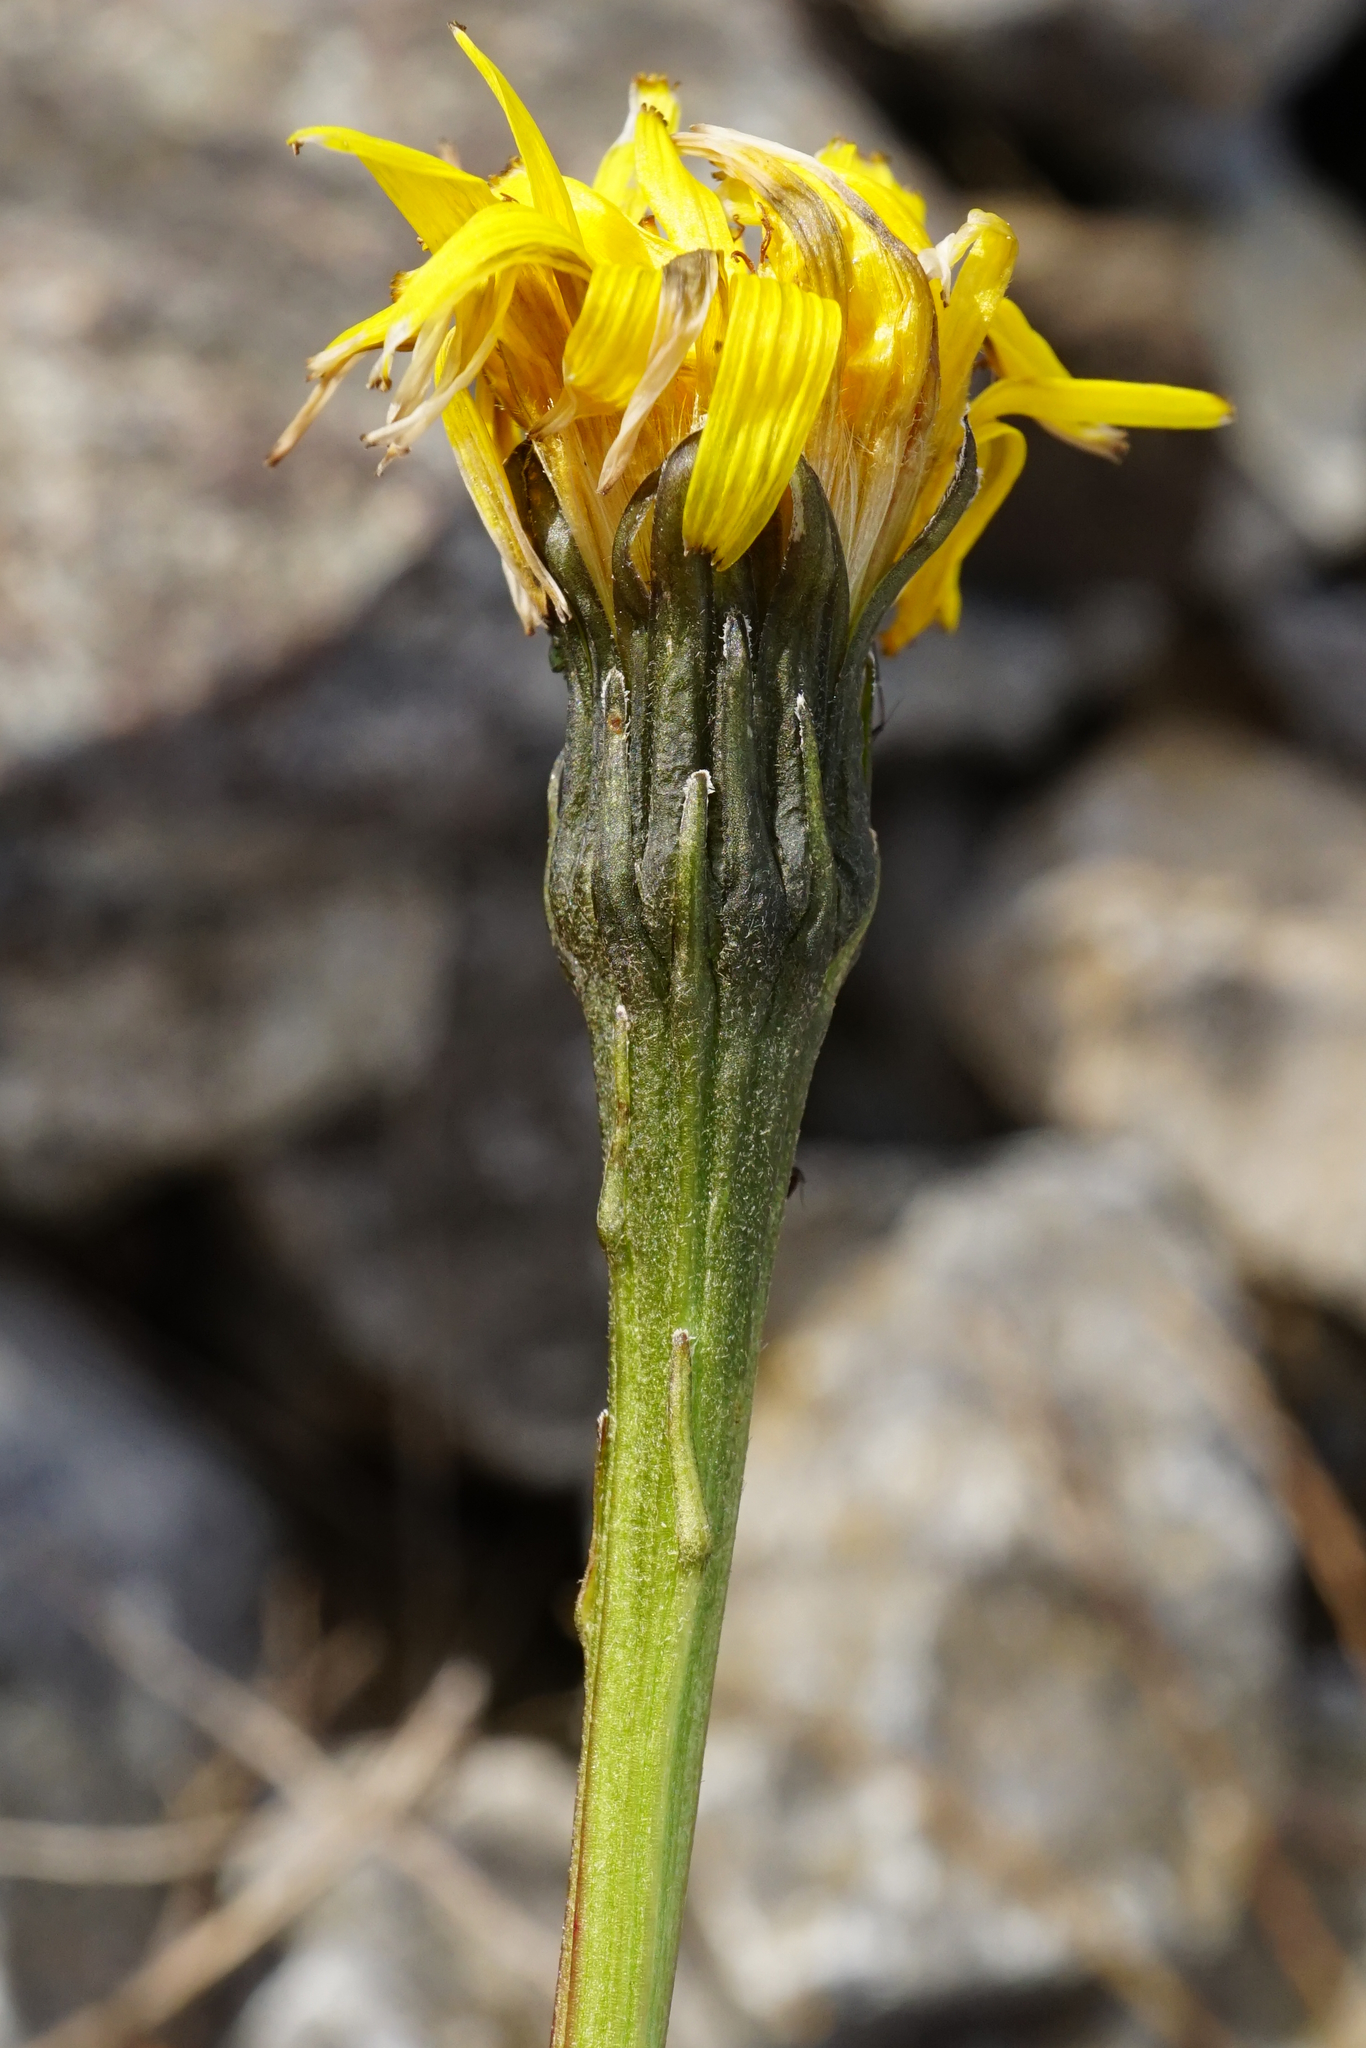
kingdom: Plantae
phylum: Tracheophyta
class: Magnoliopsida
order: Asterales
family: Asteraceae
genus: Leontodon
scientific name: Leontodon hispidus
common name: Rough hawkbit
